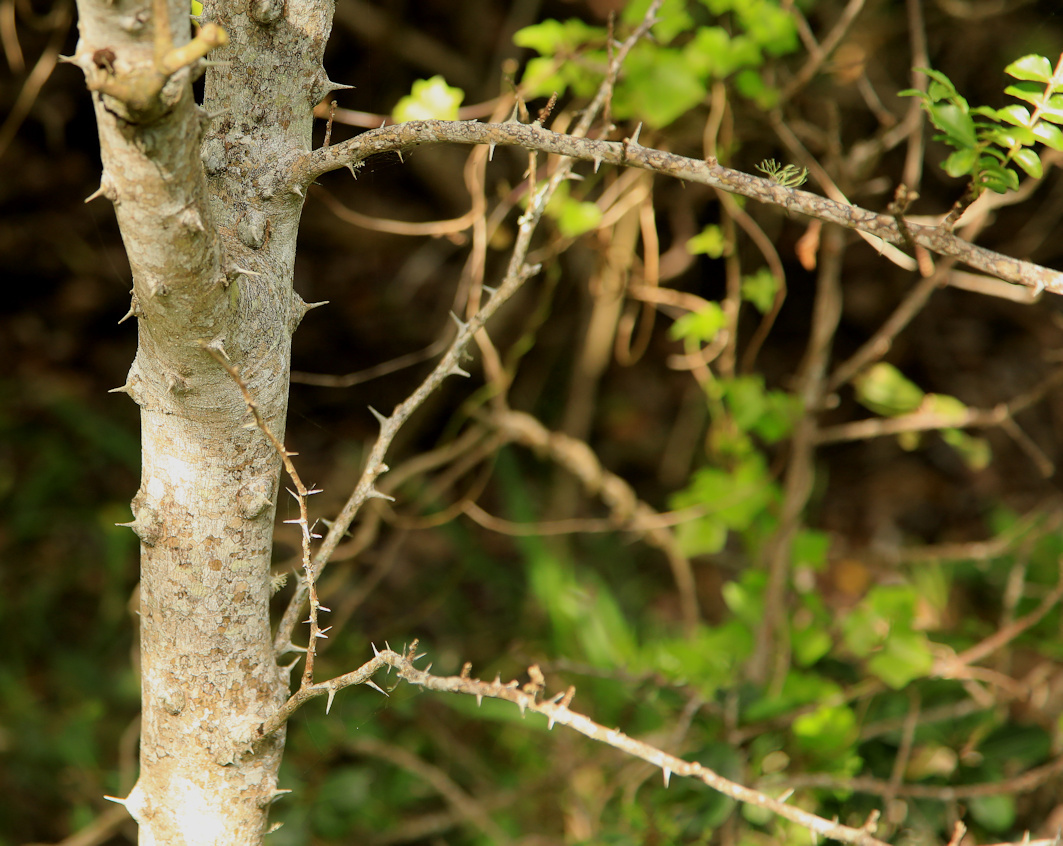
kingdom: Plantae
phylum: Tracheophyta
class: Magnoliopsida
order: Sapindales
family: Rutaceae
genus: Zanthoxylum
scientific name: Zanthoxylum capense
